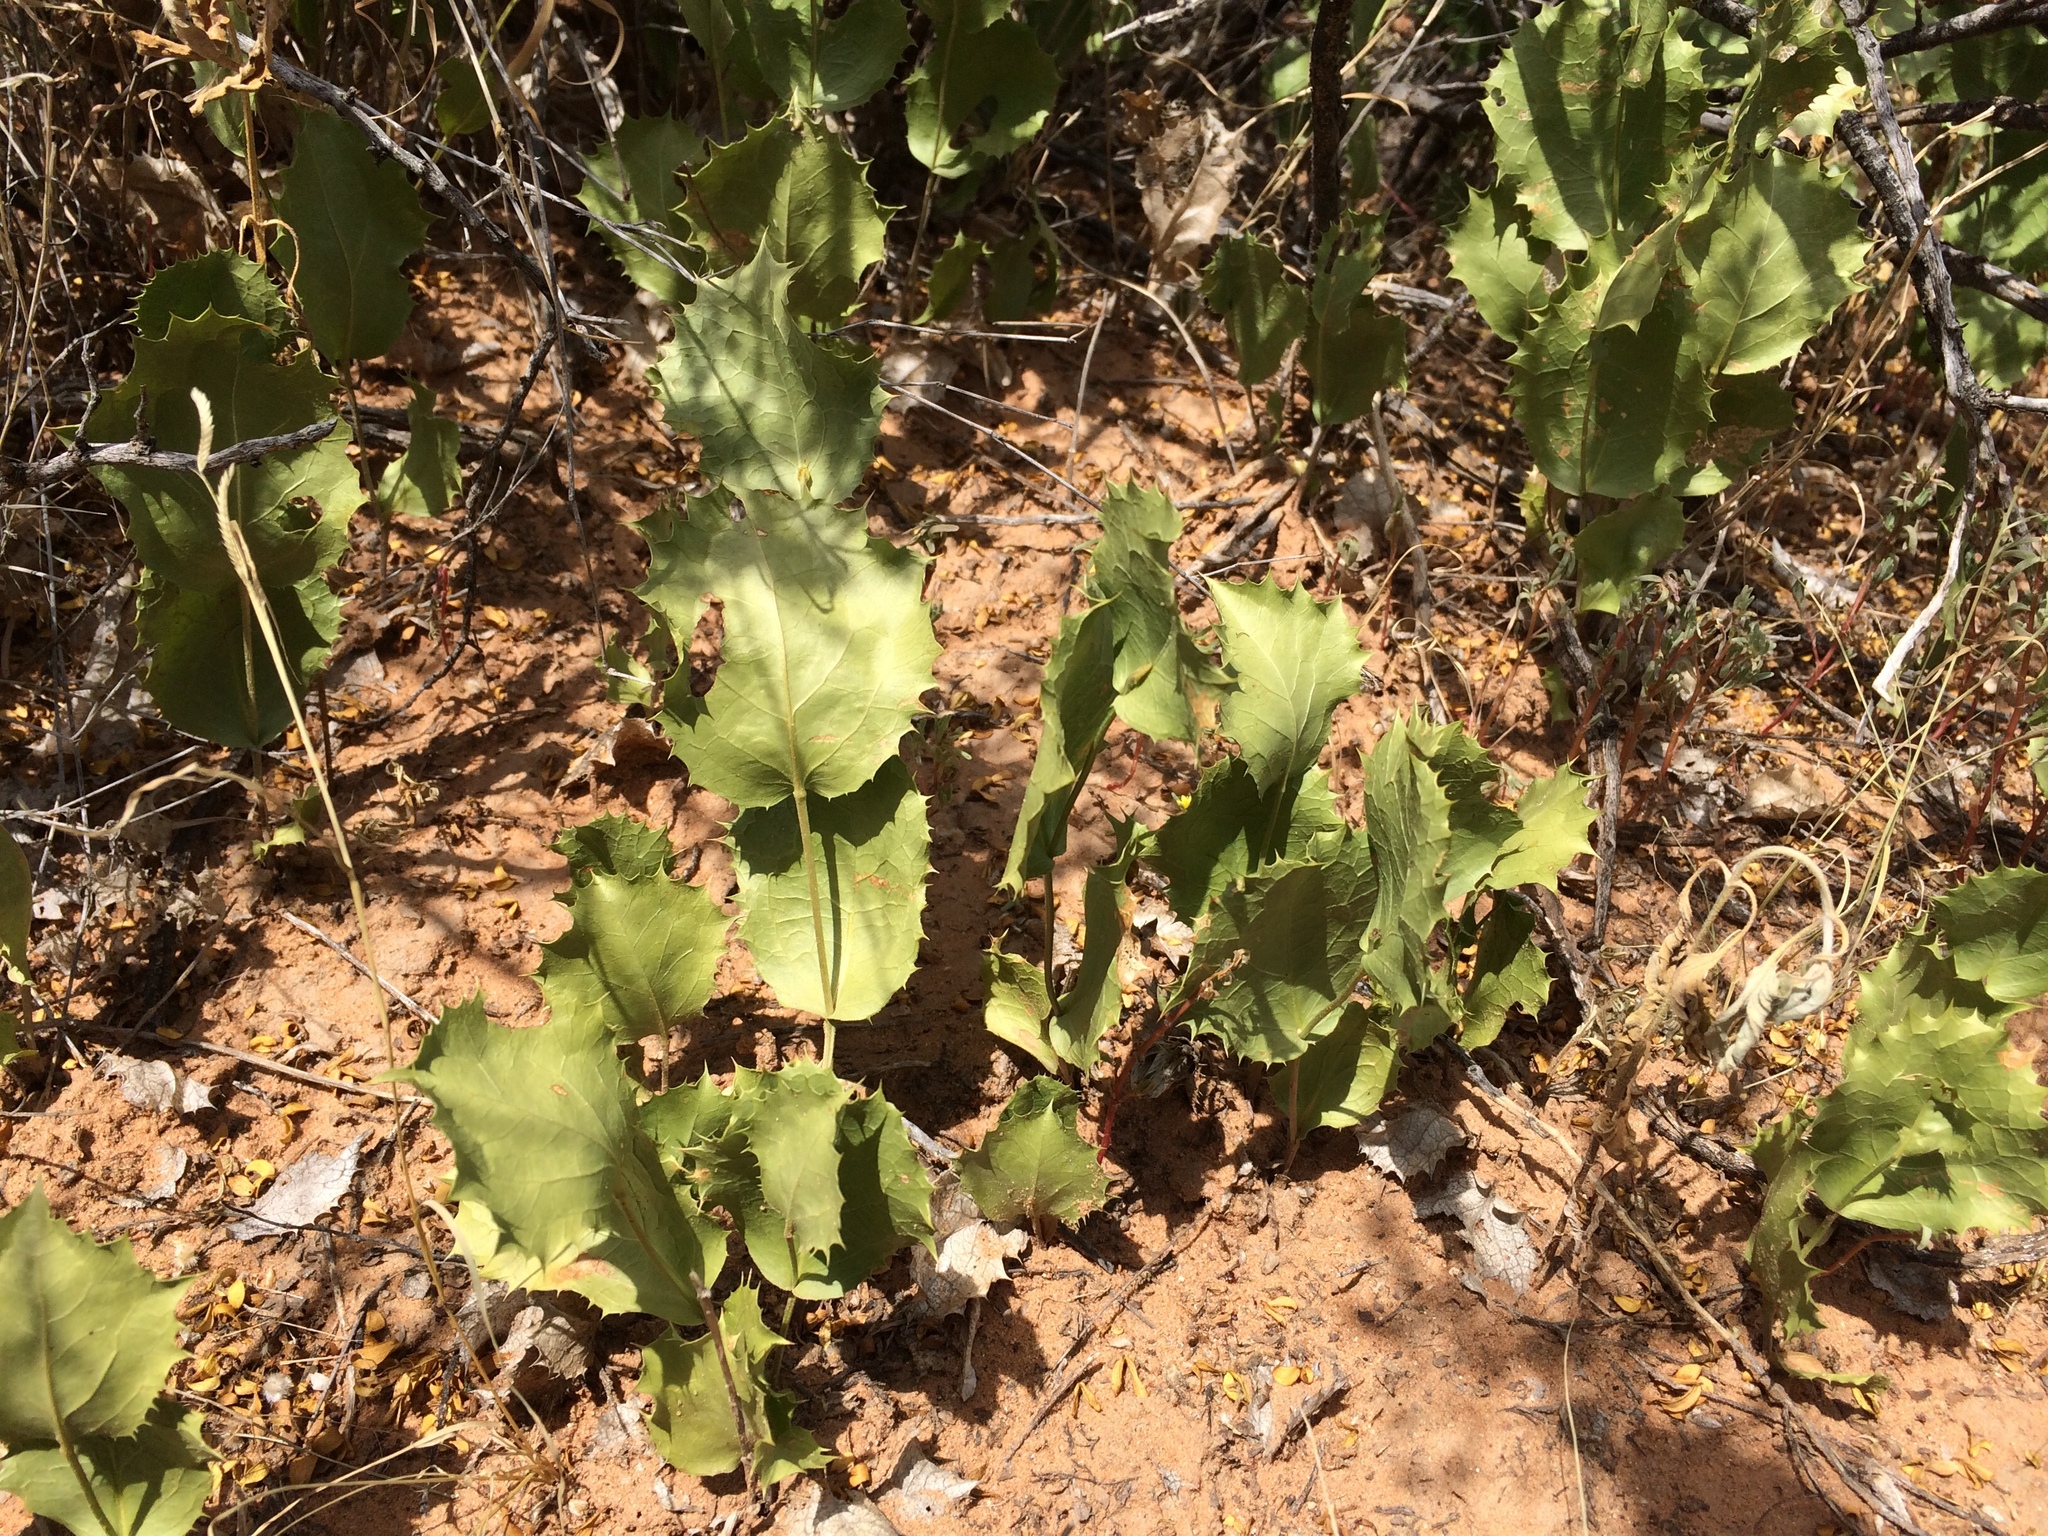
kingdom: Plantae
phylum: Tracheophyta
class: Magnoliopsida
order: Asterales
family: Asteraceae
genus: Acourtia
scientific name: Acourtia nana
